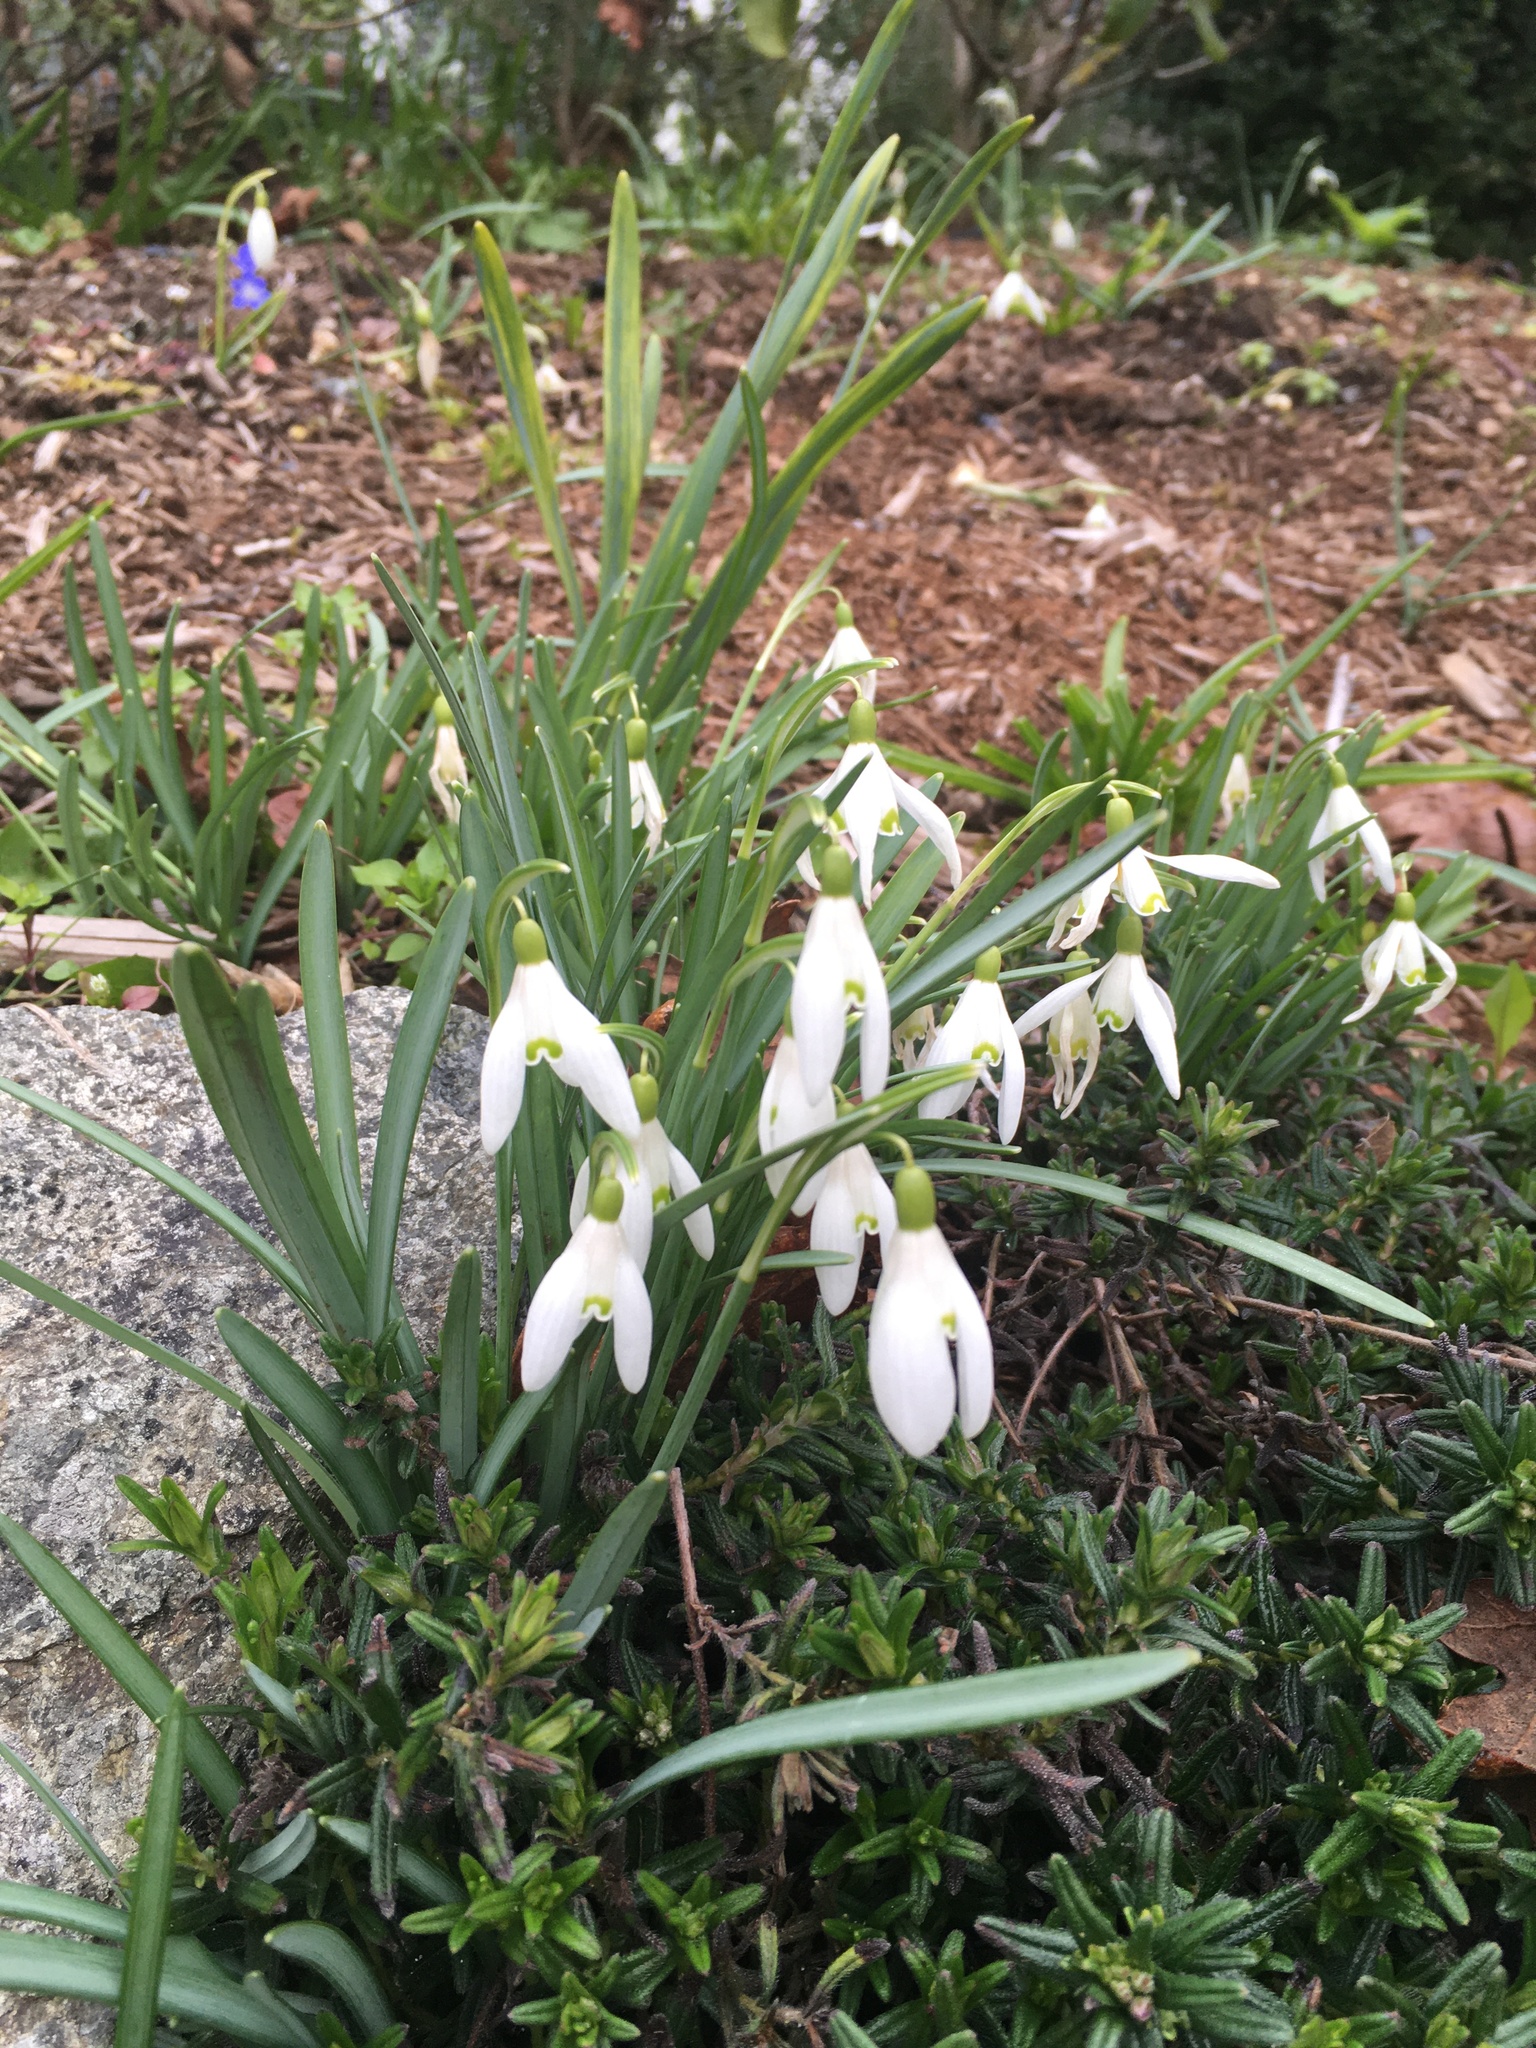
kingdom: Plantae
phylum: Tracheophyta
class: Liliopsida
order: Asparagales
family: Amaryllidaceae
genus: Galanthus
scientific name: Galanthus nivalis
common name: Snowdrop
